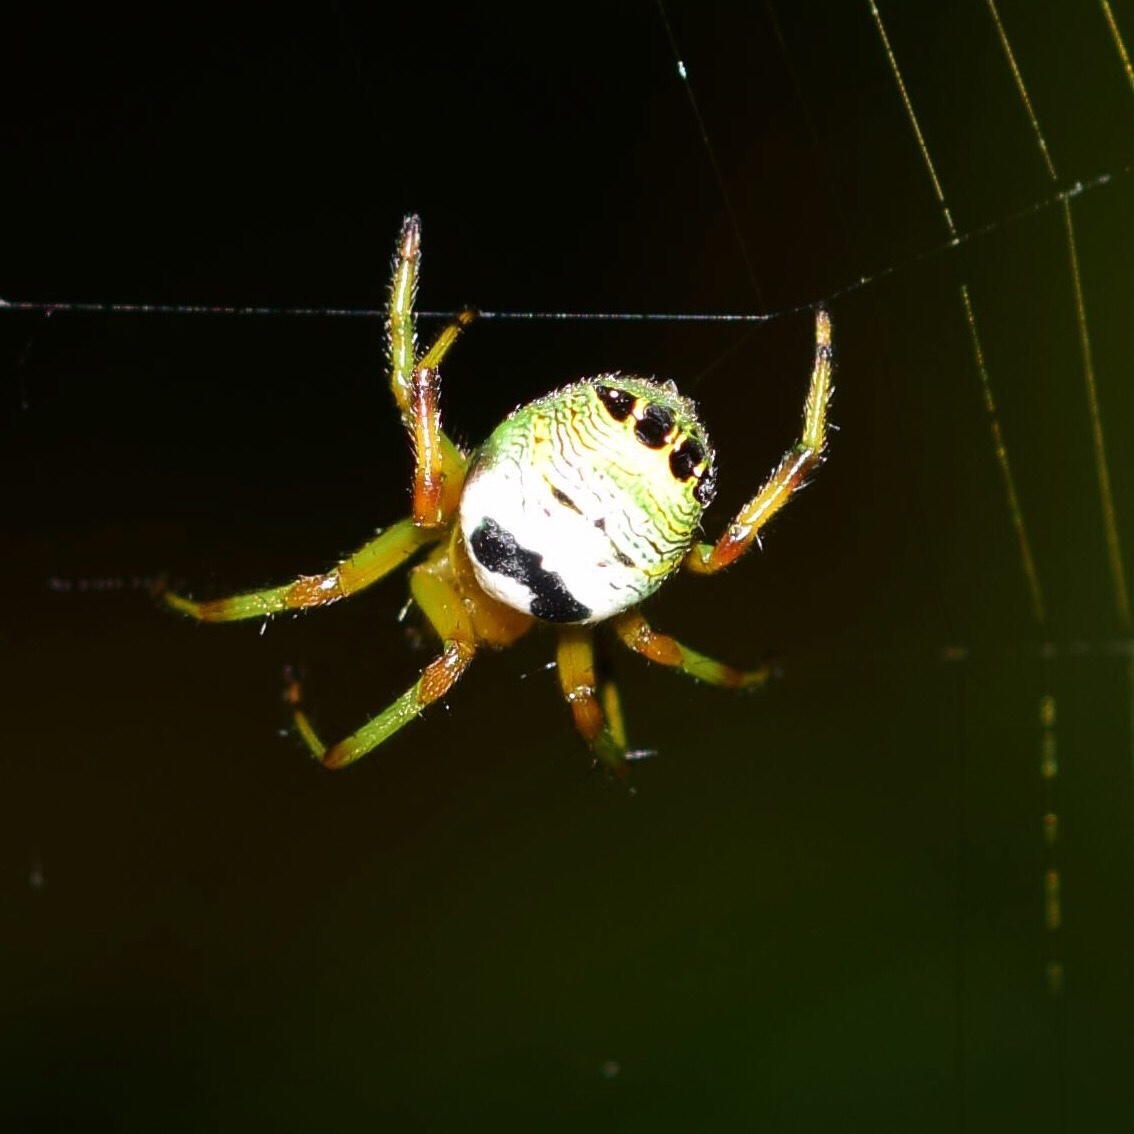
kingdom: Animalia
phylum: Arthropoda
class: Arachnida
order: Araneae
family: Araneidae
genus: Bijoaraneus
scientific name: Bijoaraneus legonensis
